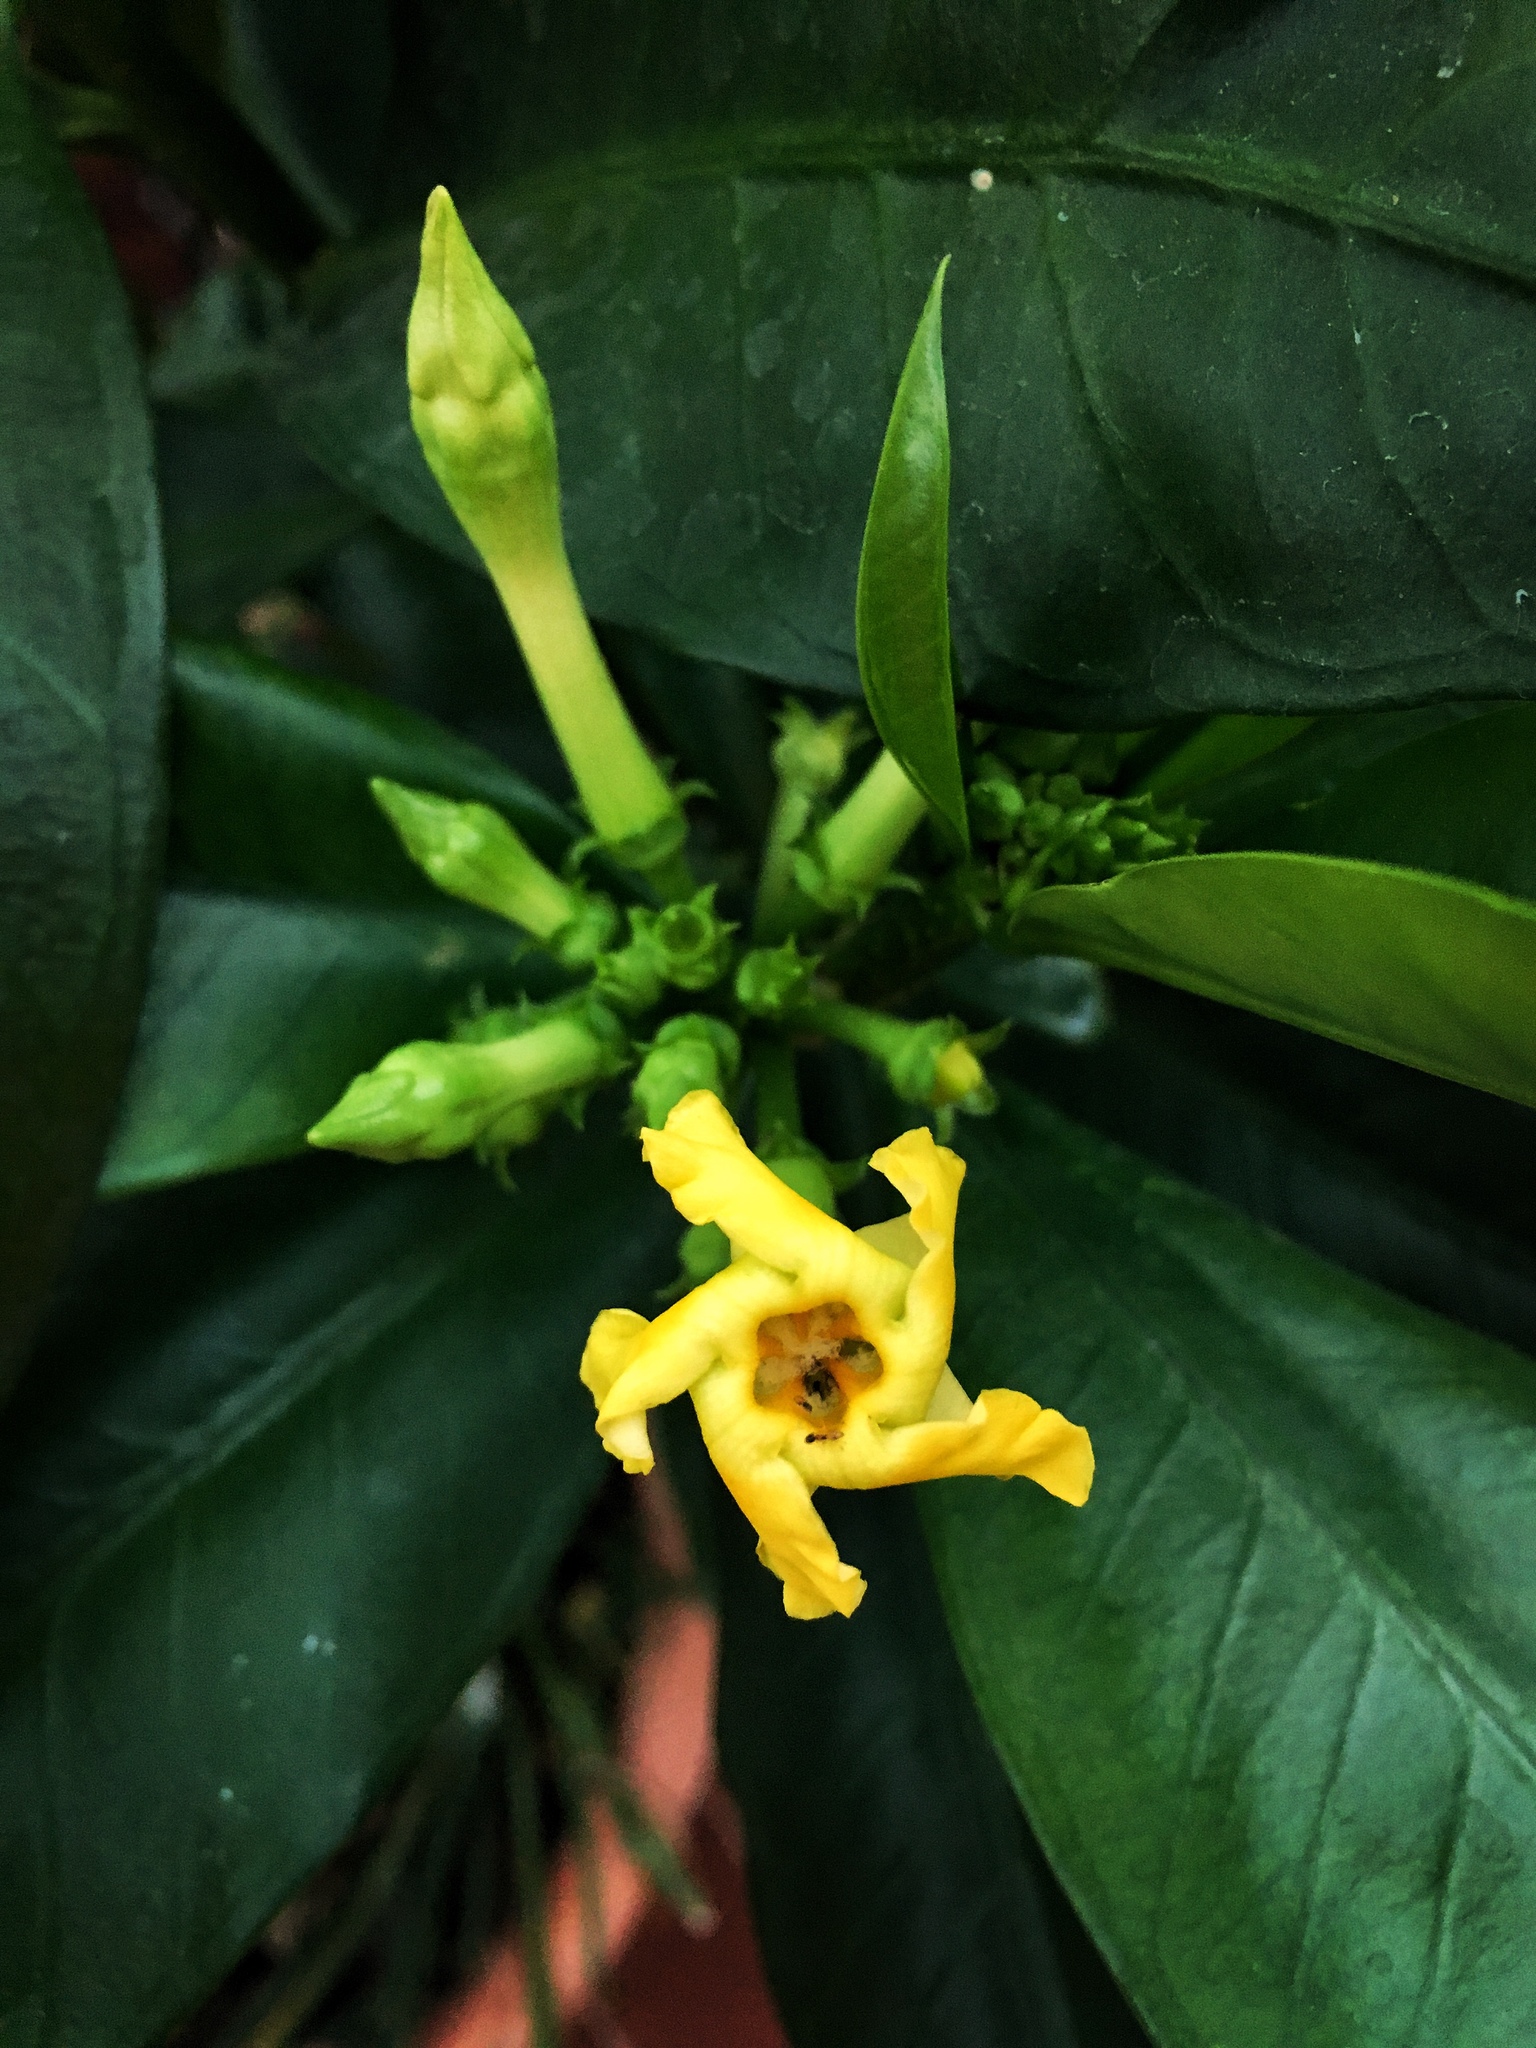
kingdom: Plantae
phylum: Tracheophyta
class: Magnoliopsida
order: Gentianales
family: Apocynaceae
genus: Thevetia
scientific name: Thevetia ahouai
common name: Broadleaf thevetia
